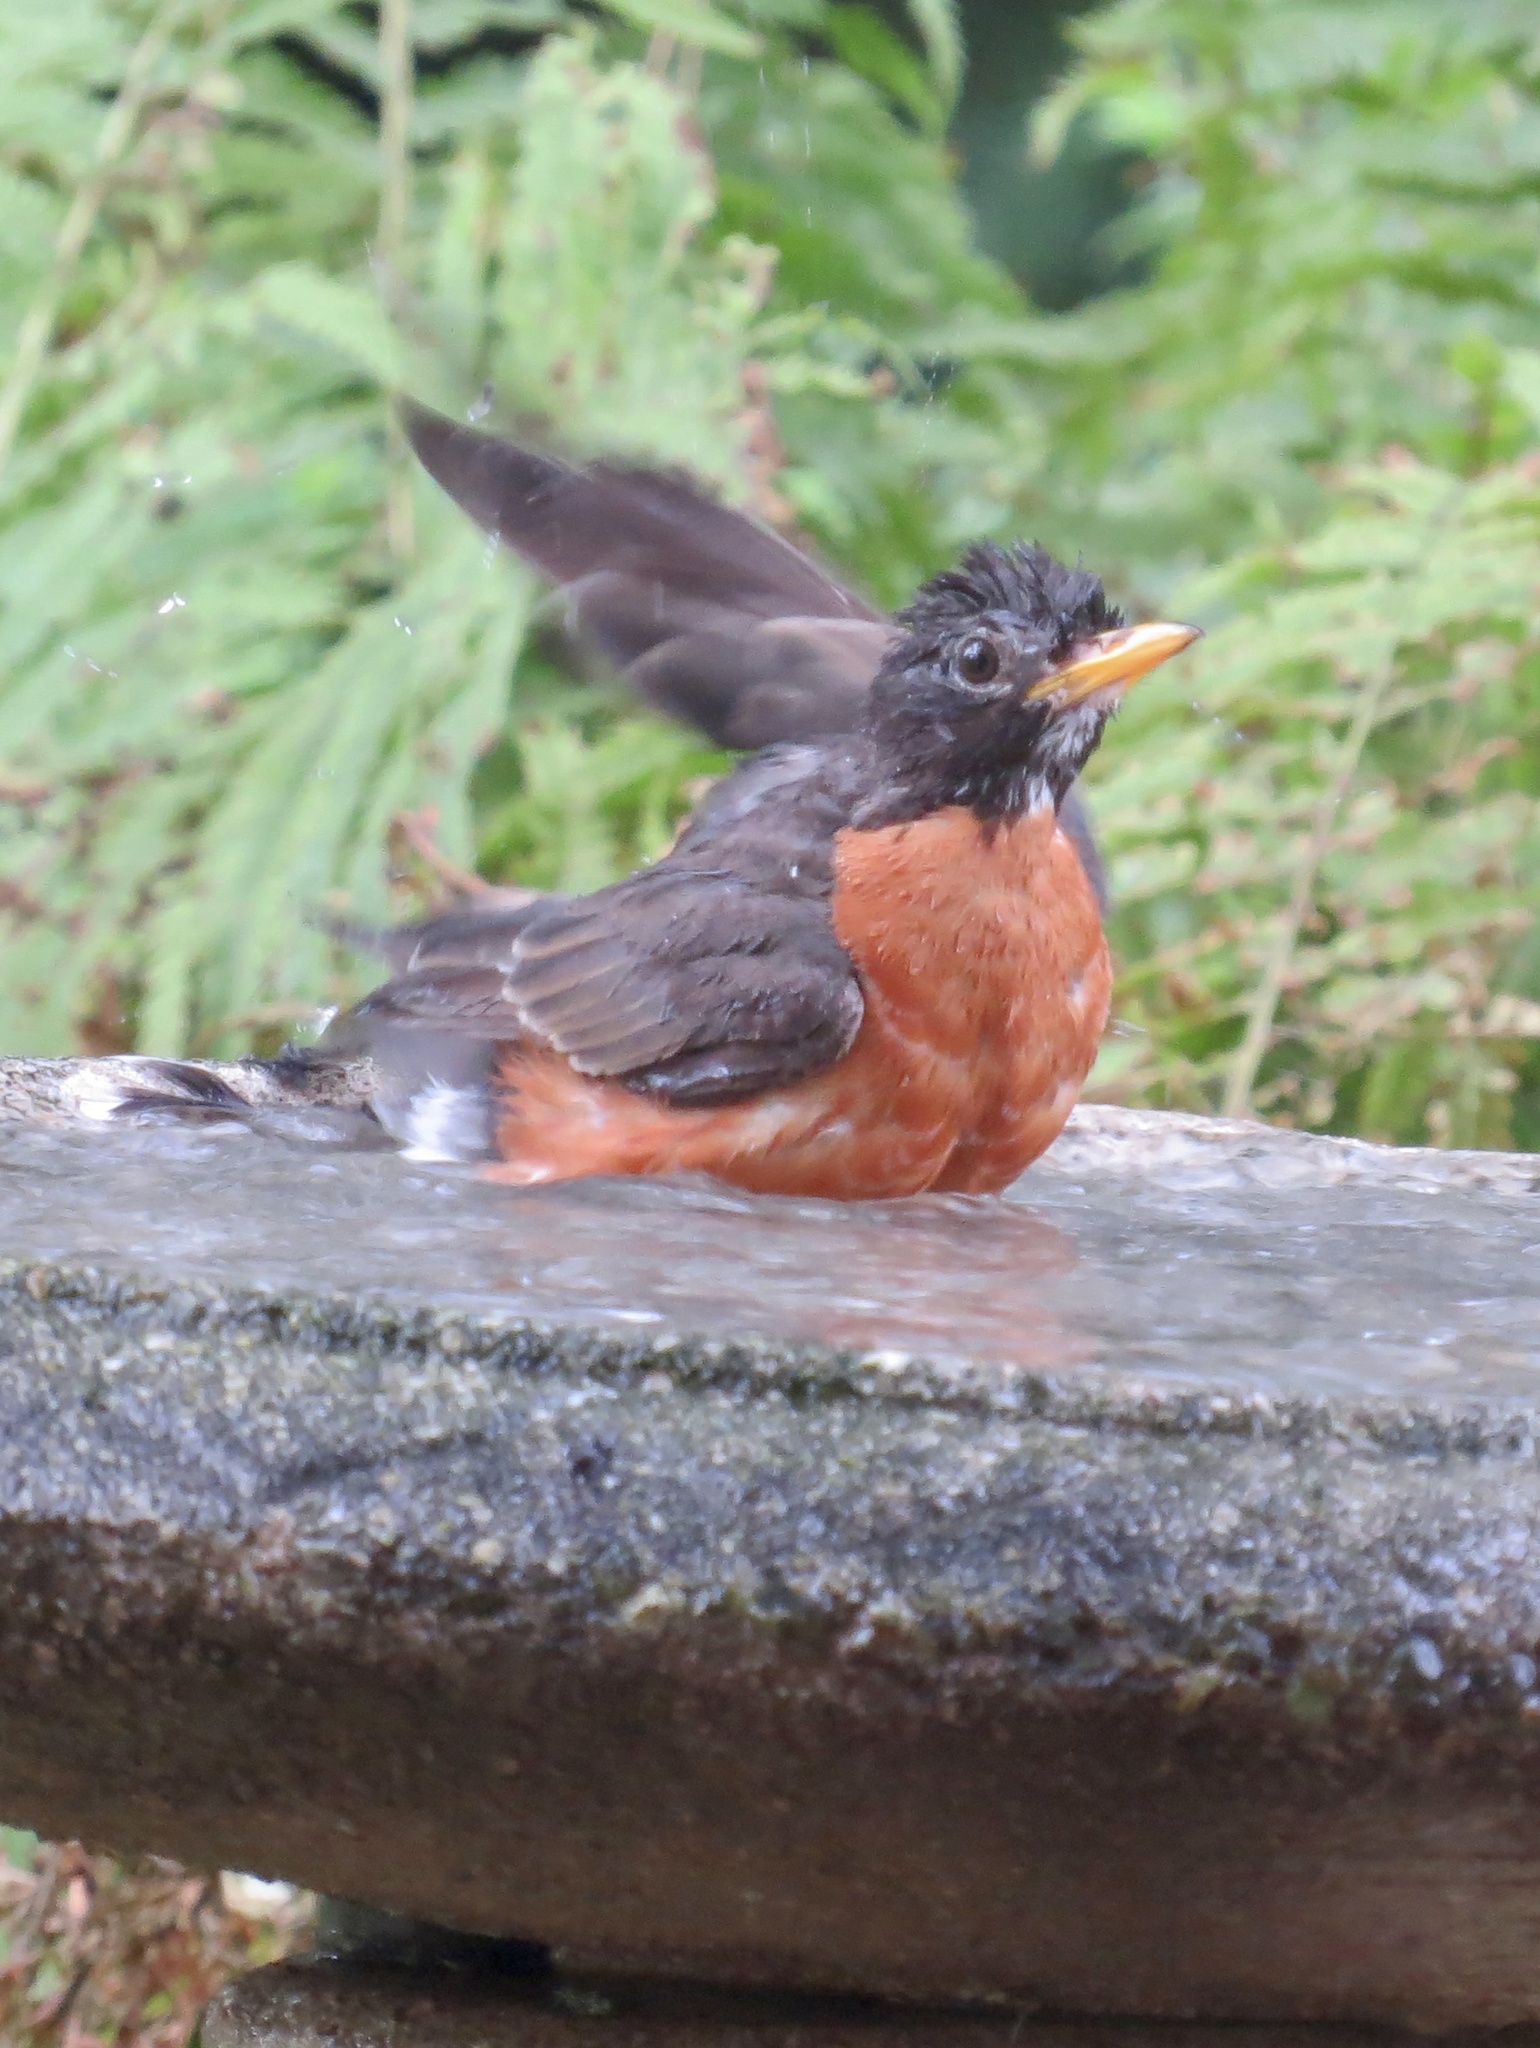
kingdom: Animalia
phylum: Chordata
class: Aves
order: Passeriformes
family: Turdidae
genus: Turdus
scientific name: Turdus migratorius
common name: American robin
